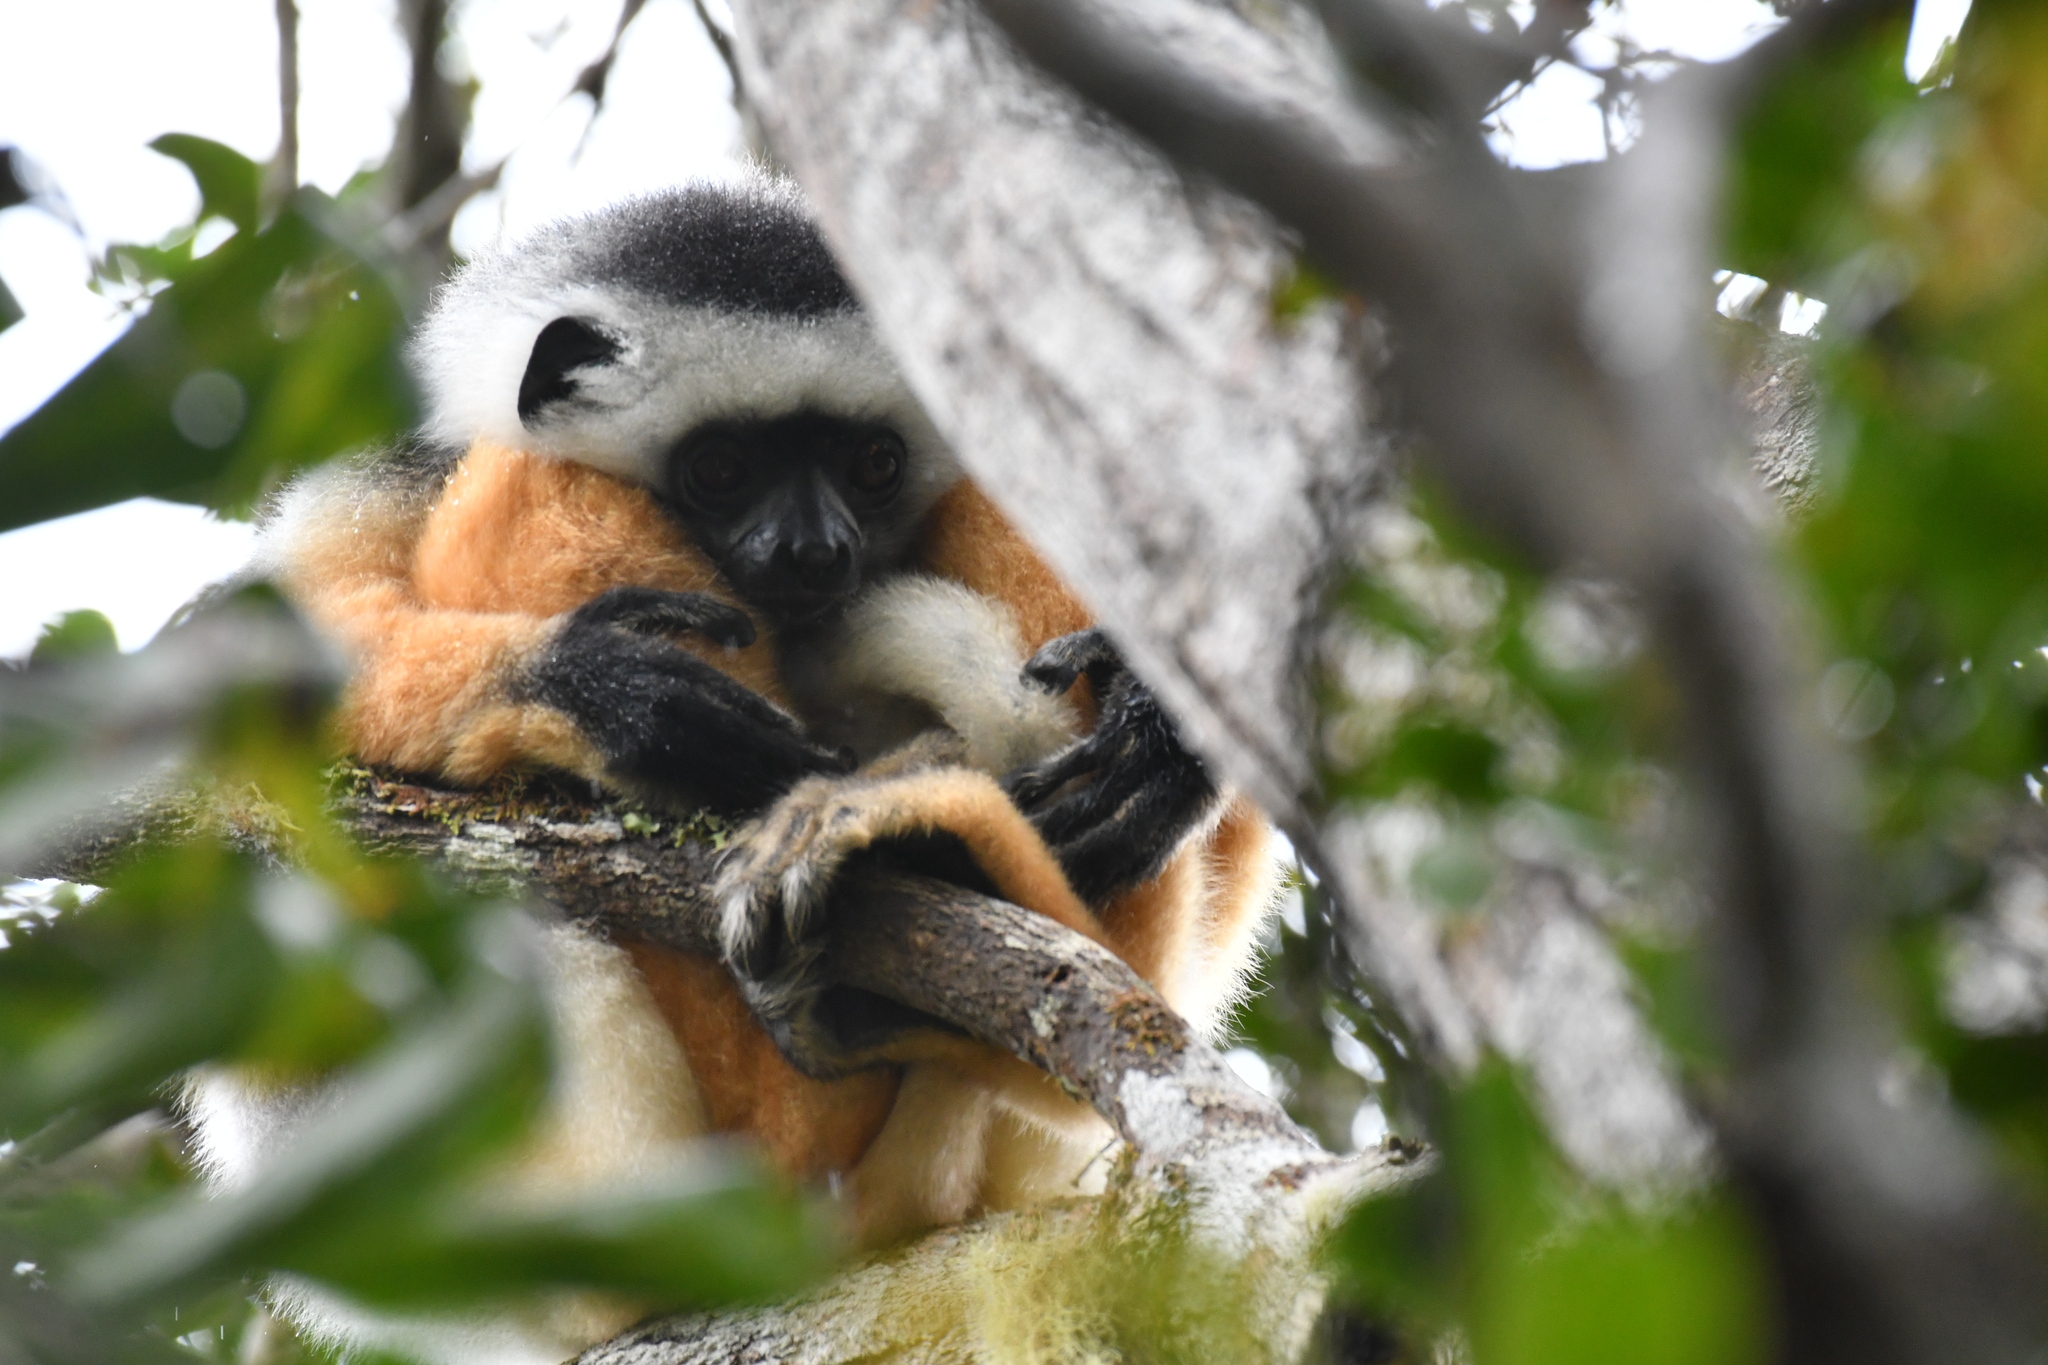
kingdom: Animalia
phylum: Chordata
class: Mammalia
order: Primates
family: Indriidae
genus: Propithecus
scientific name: Propithecus diadema
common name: Diademed sifaka
